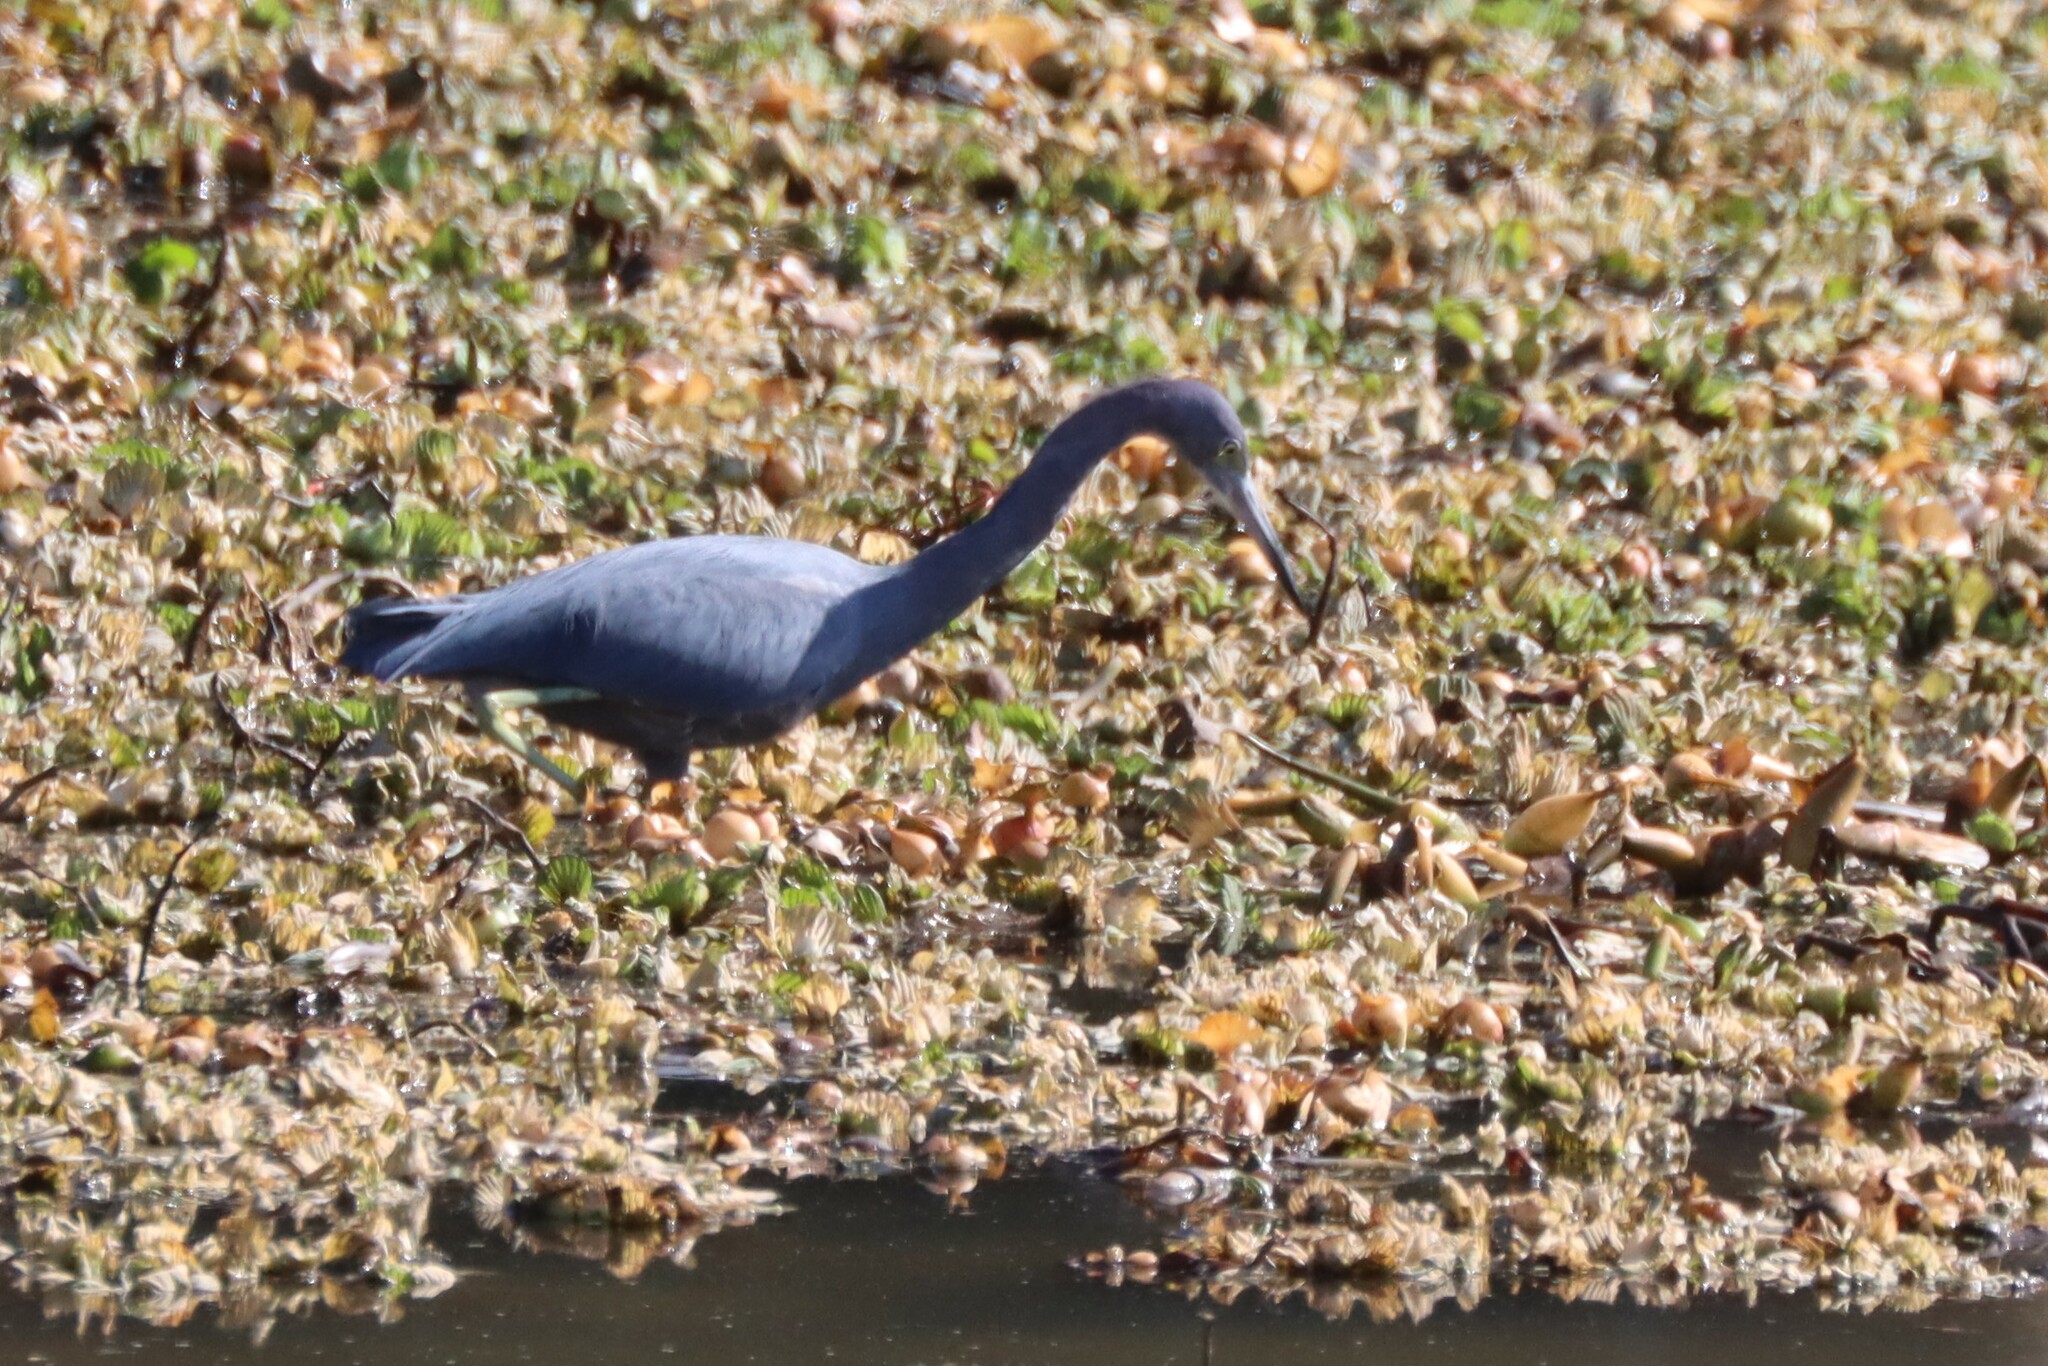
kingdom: Animalia
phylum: Chordata
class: Aves
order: Pelecaniformes
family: Ardeidae
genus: Egretta
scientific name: Egretta caerulea
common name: Little blue heron
